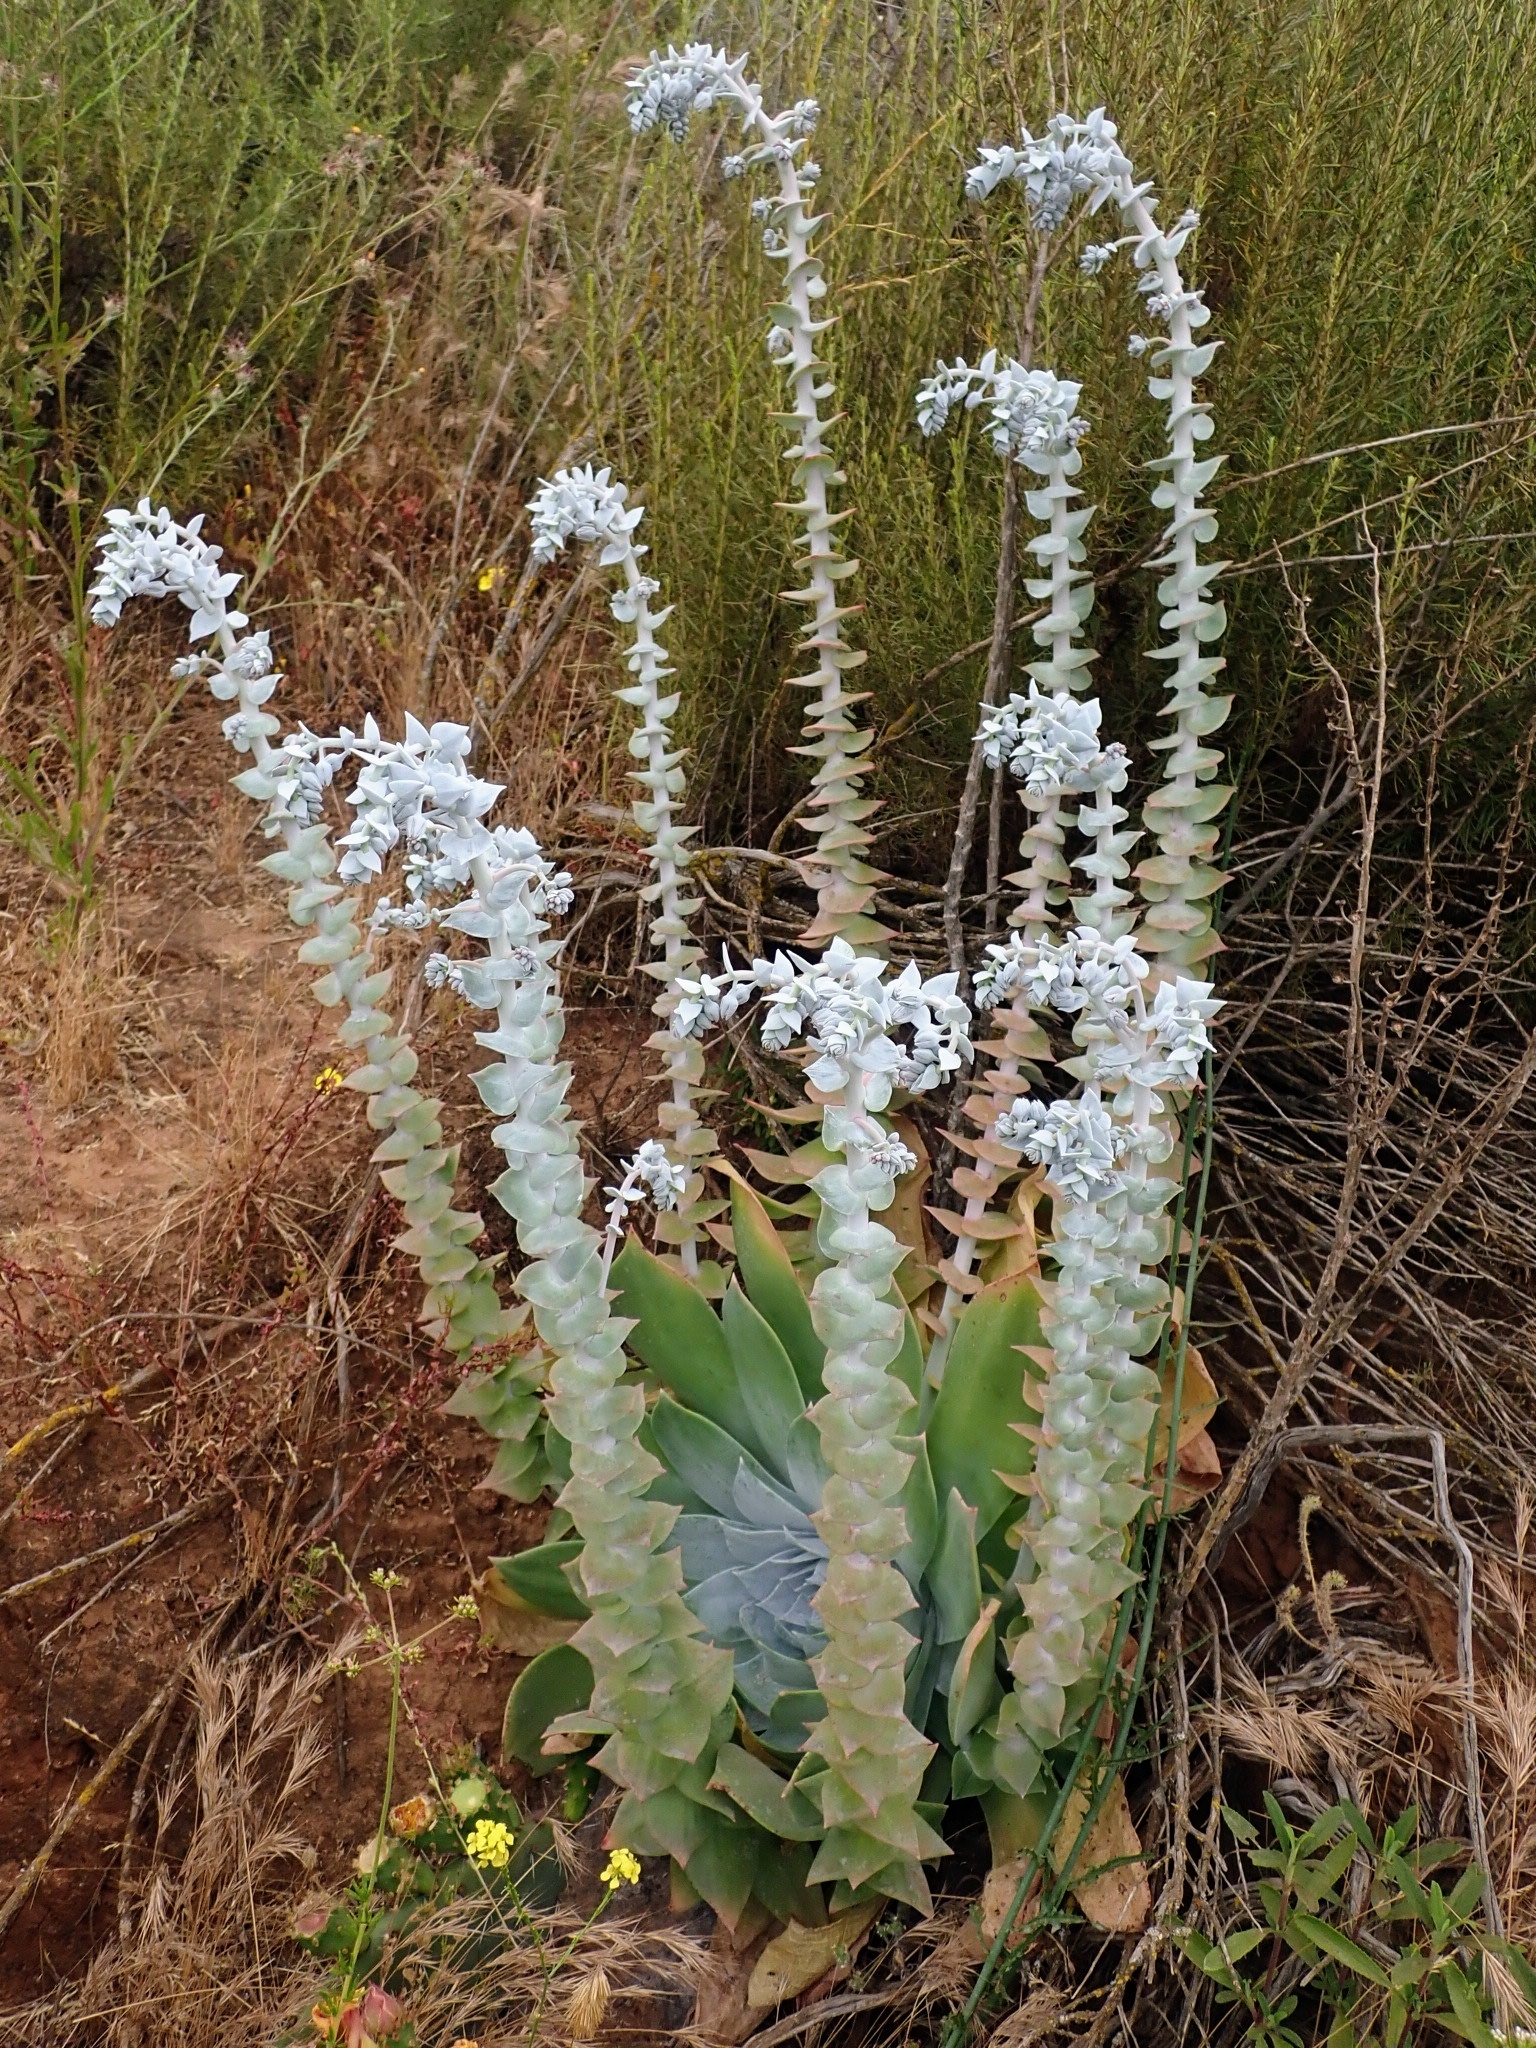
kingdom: Plantae
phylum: Tracheophyta
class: Magnoliopsida
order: Saxifragales
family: Crassulaceae
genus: Dudleya
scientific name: Dudleya pulverulenta
